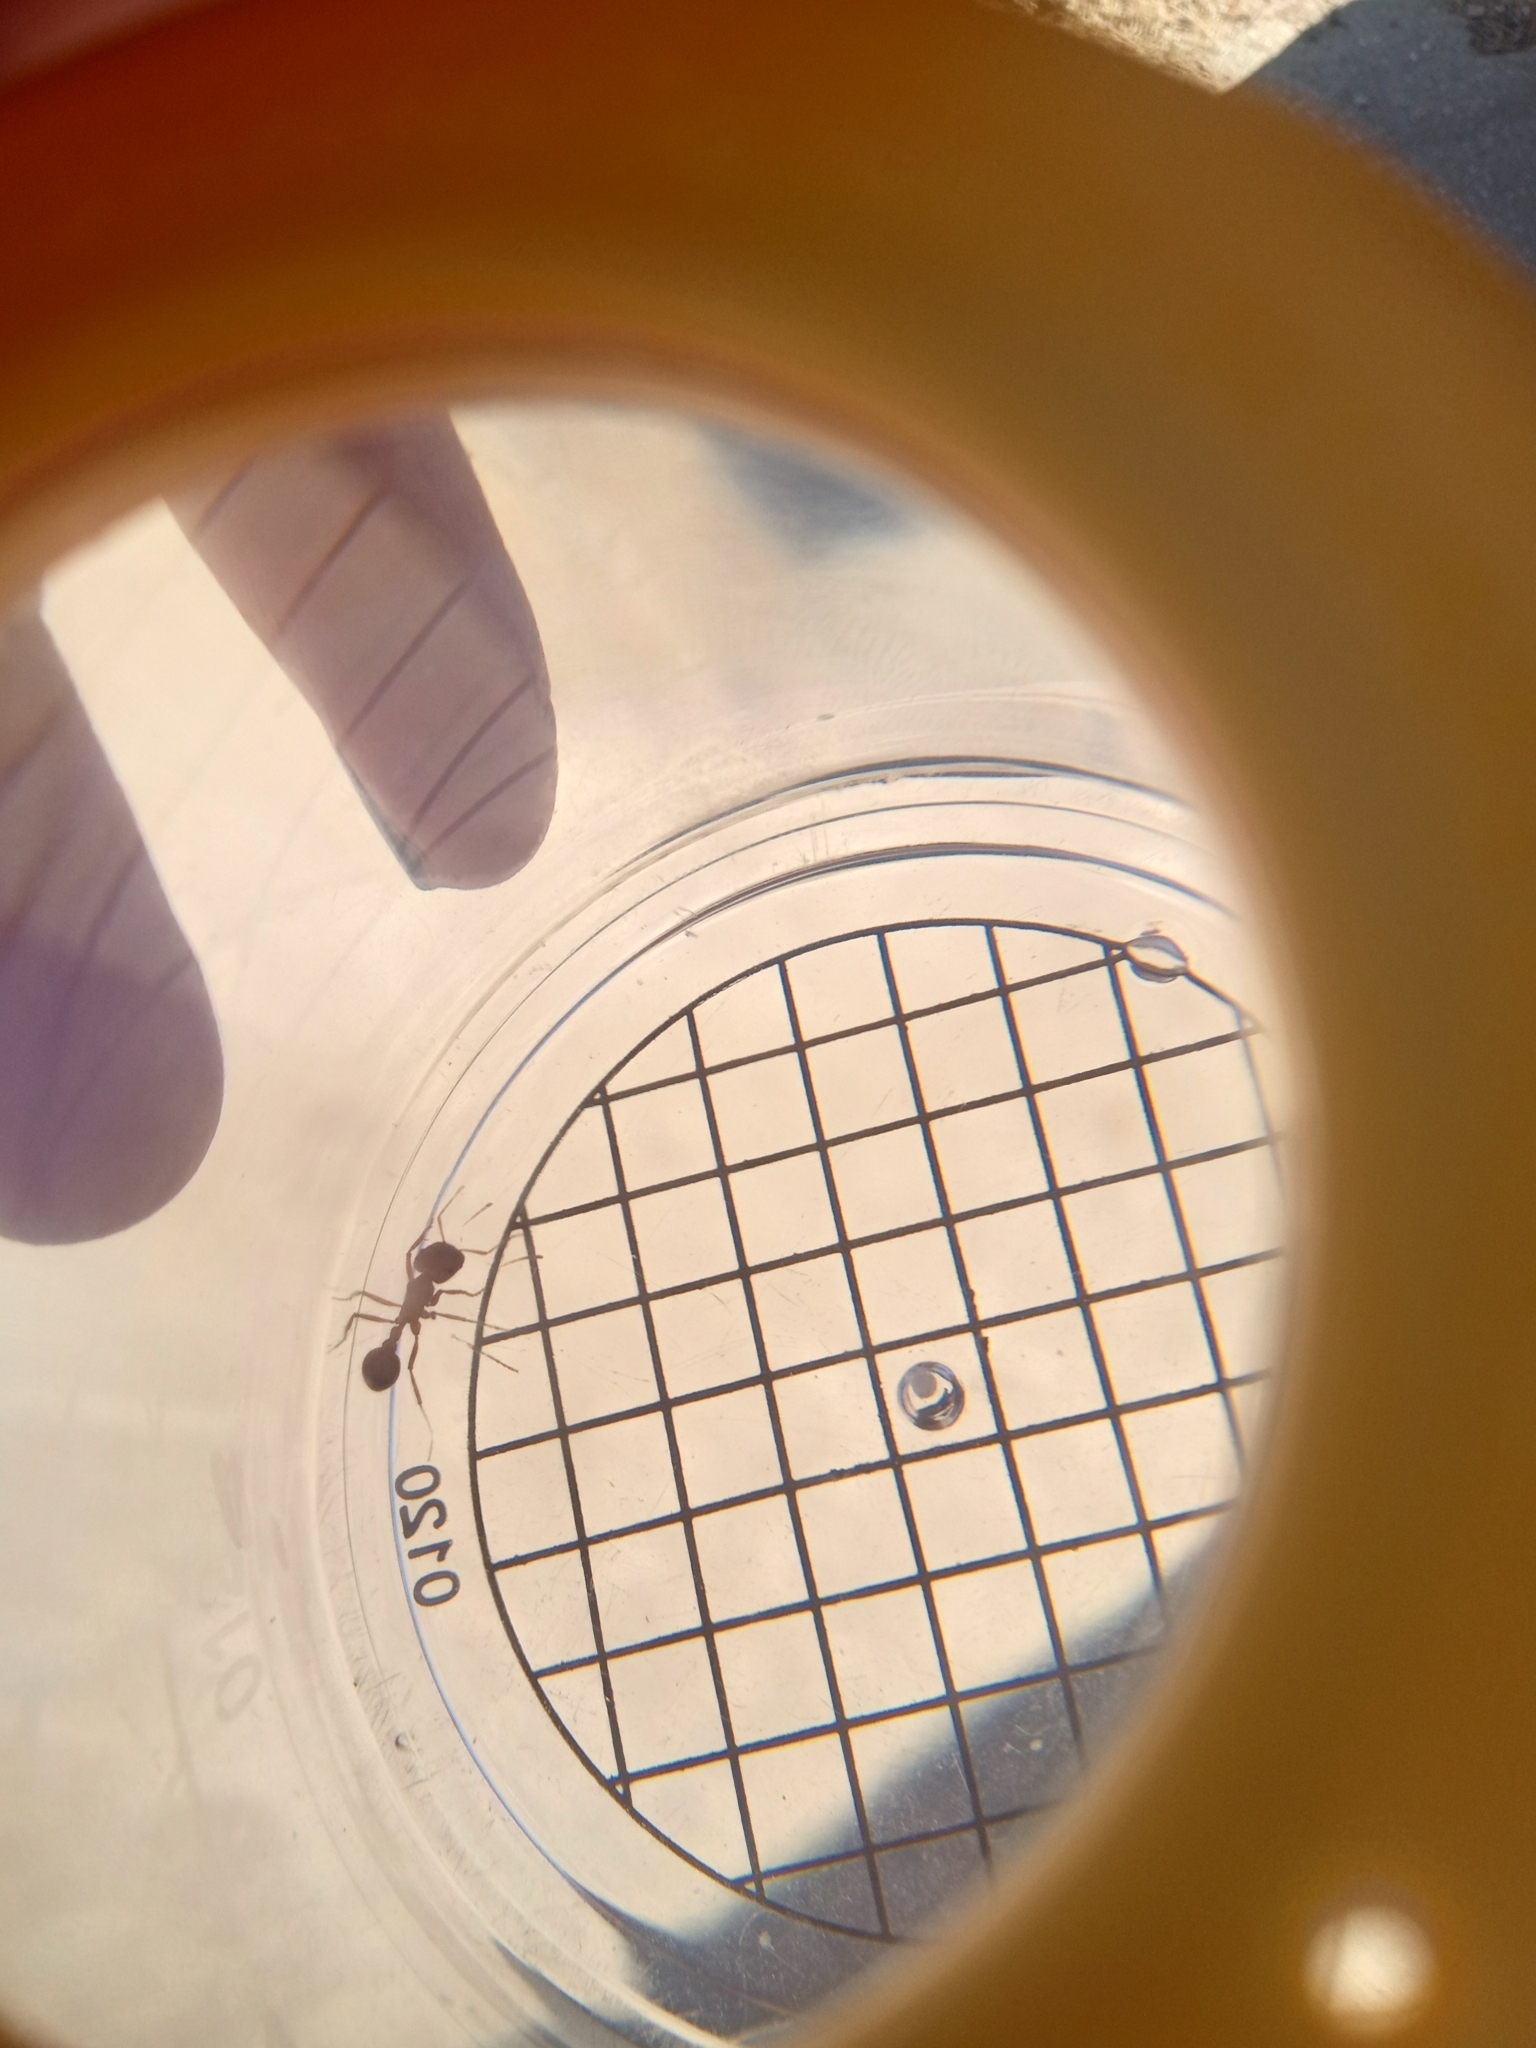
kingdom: Animalia
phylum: Arthropoda
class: Insecta
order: Hymenoptera
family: Formicidae
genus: Pogonomyrmex
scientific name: Pogonomyrmex
